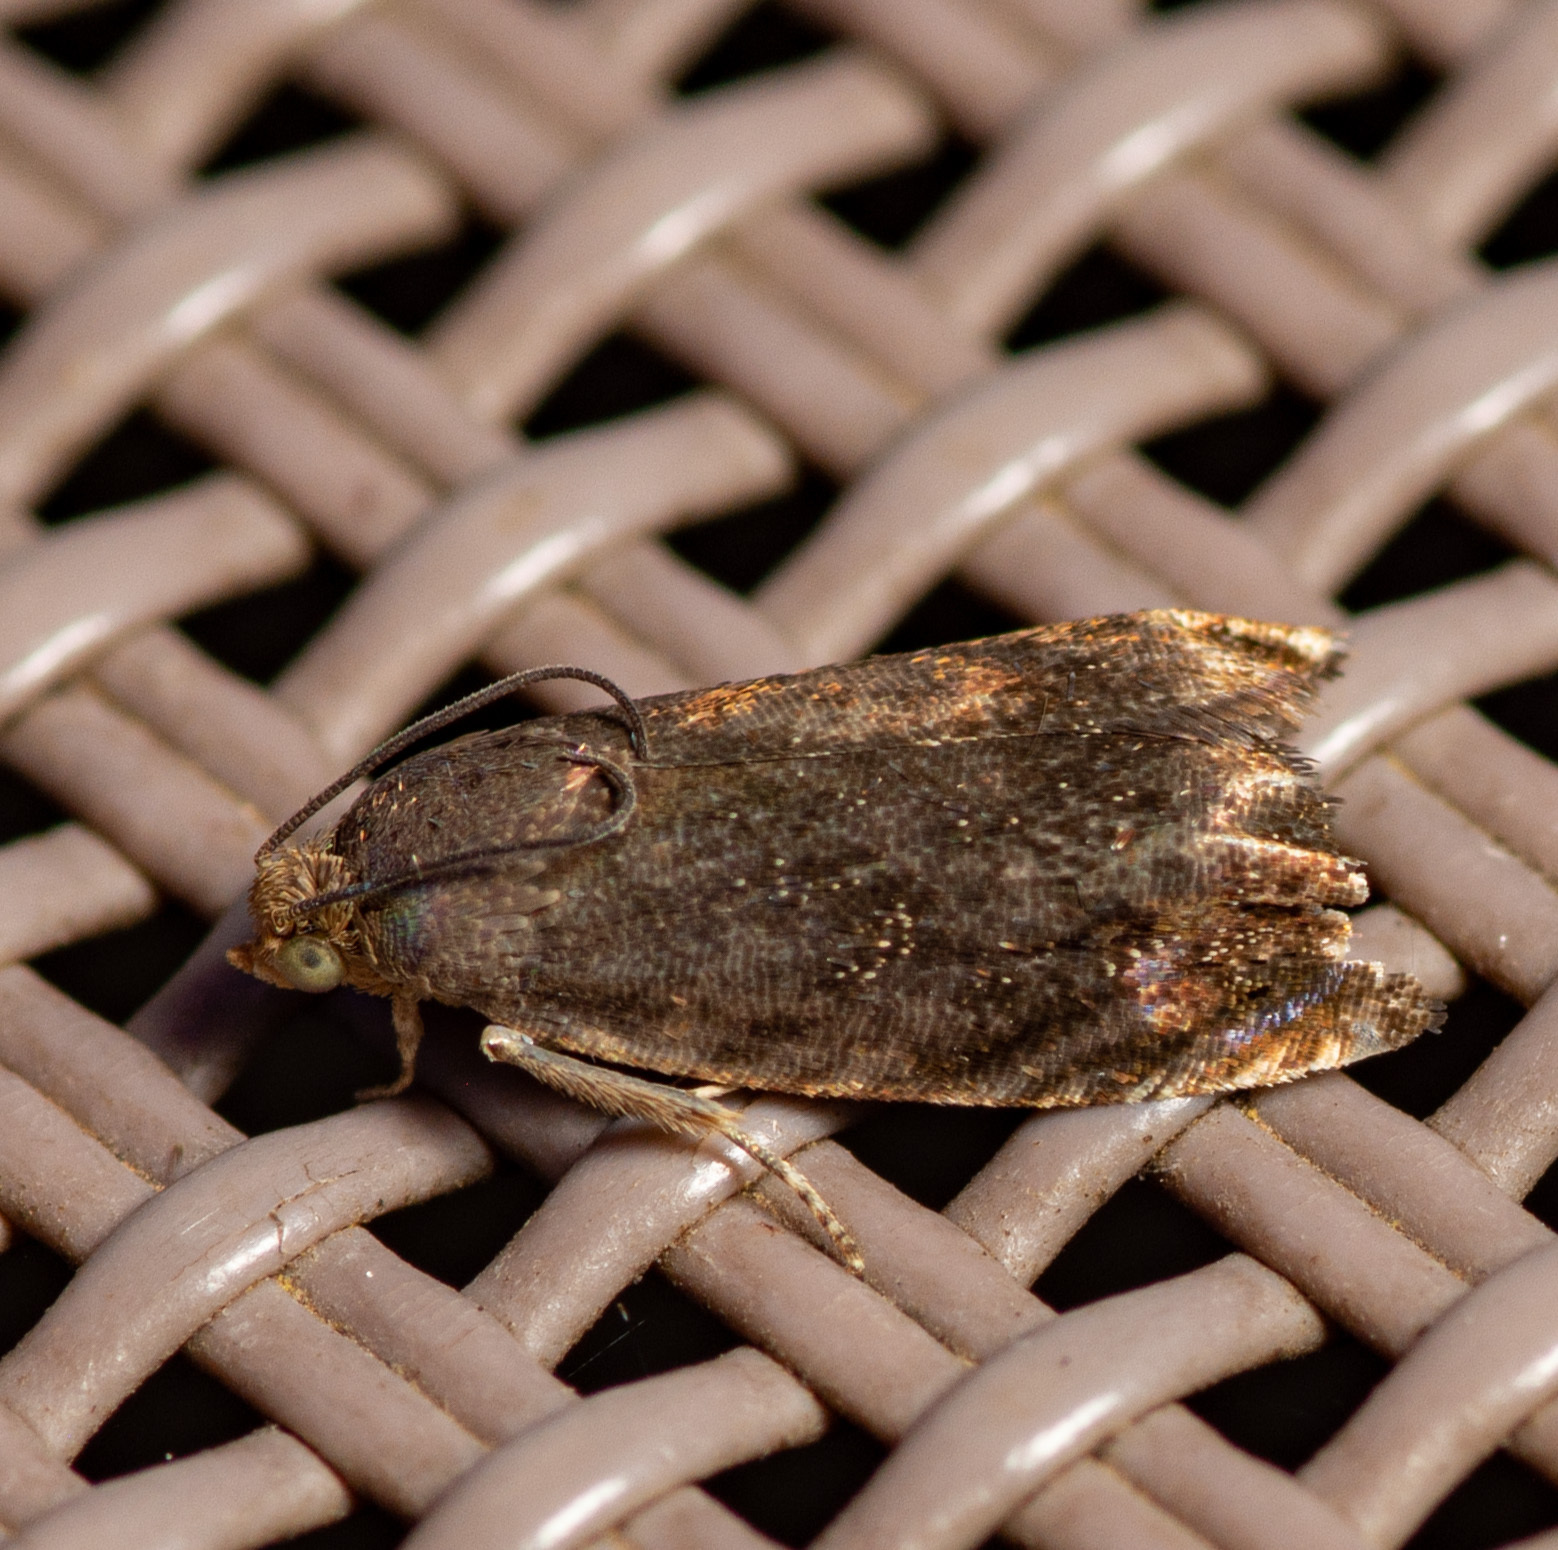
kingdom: Animalia
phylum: Arthropoda
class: Insecta
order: Lepidoptera
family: Tortricidae
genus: Cydia
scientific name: Cydia caryana
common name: Hickory shuckworm moth
